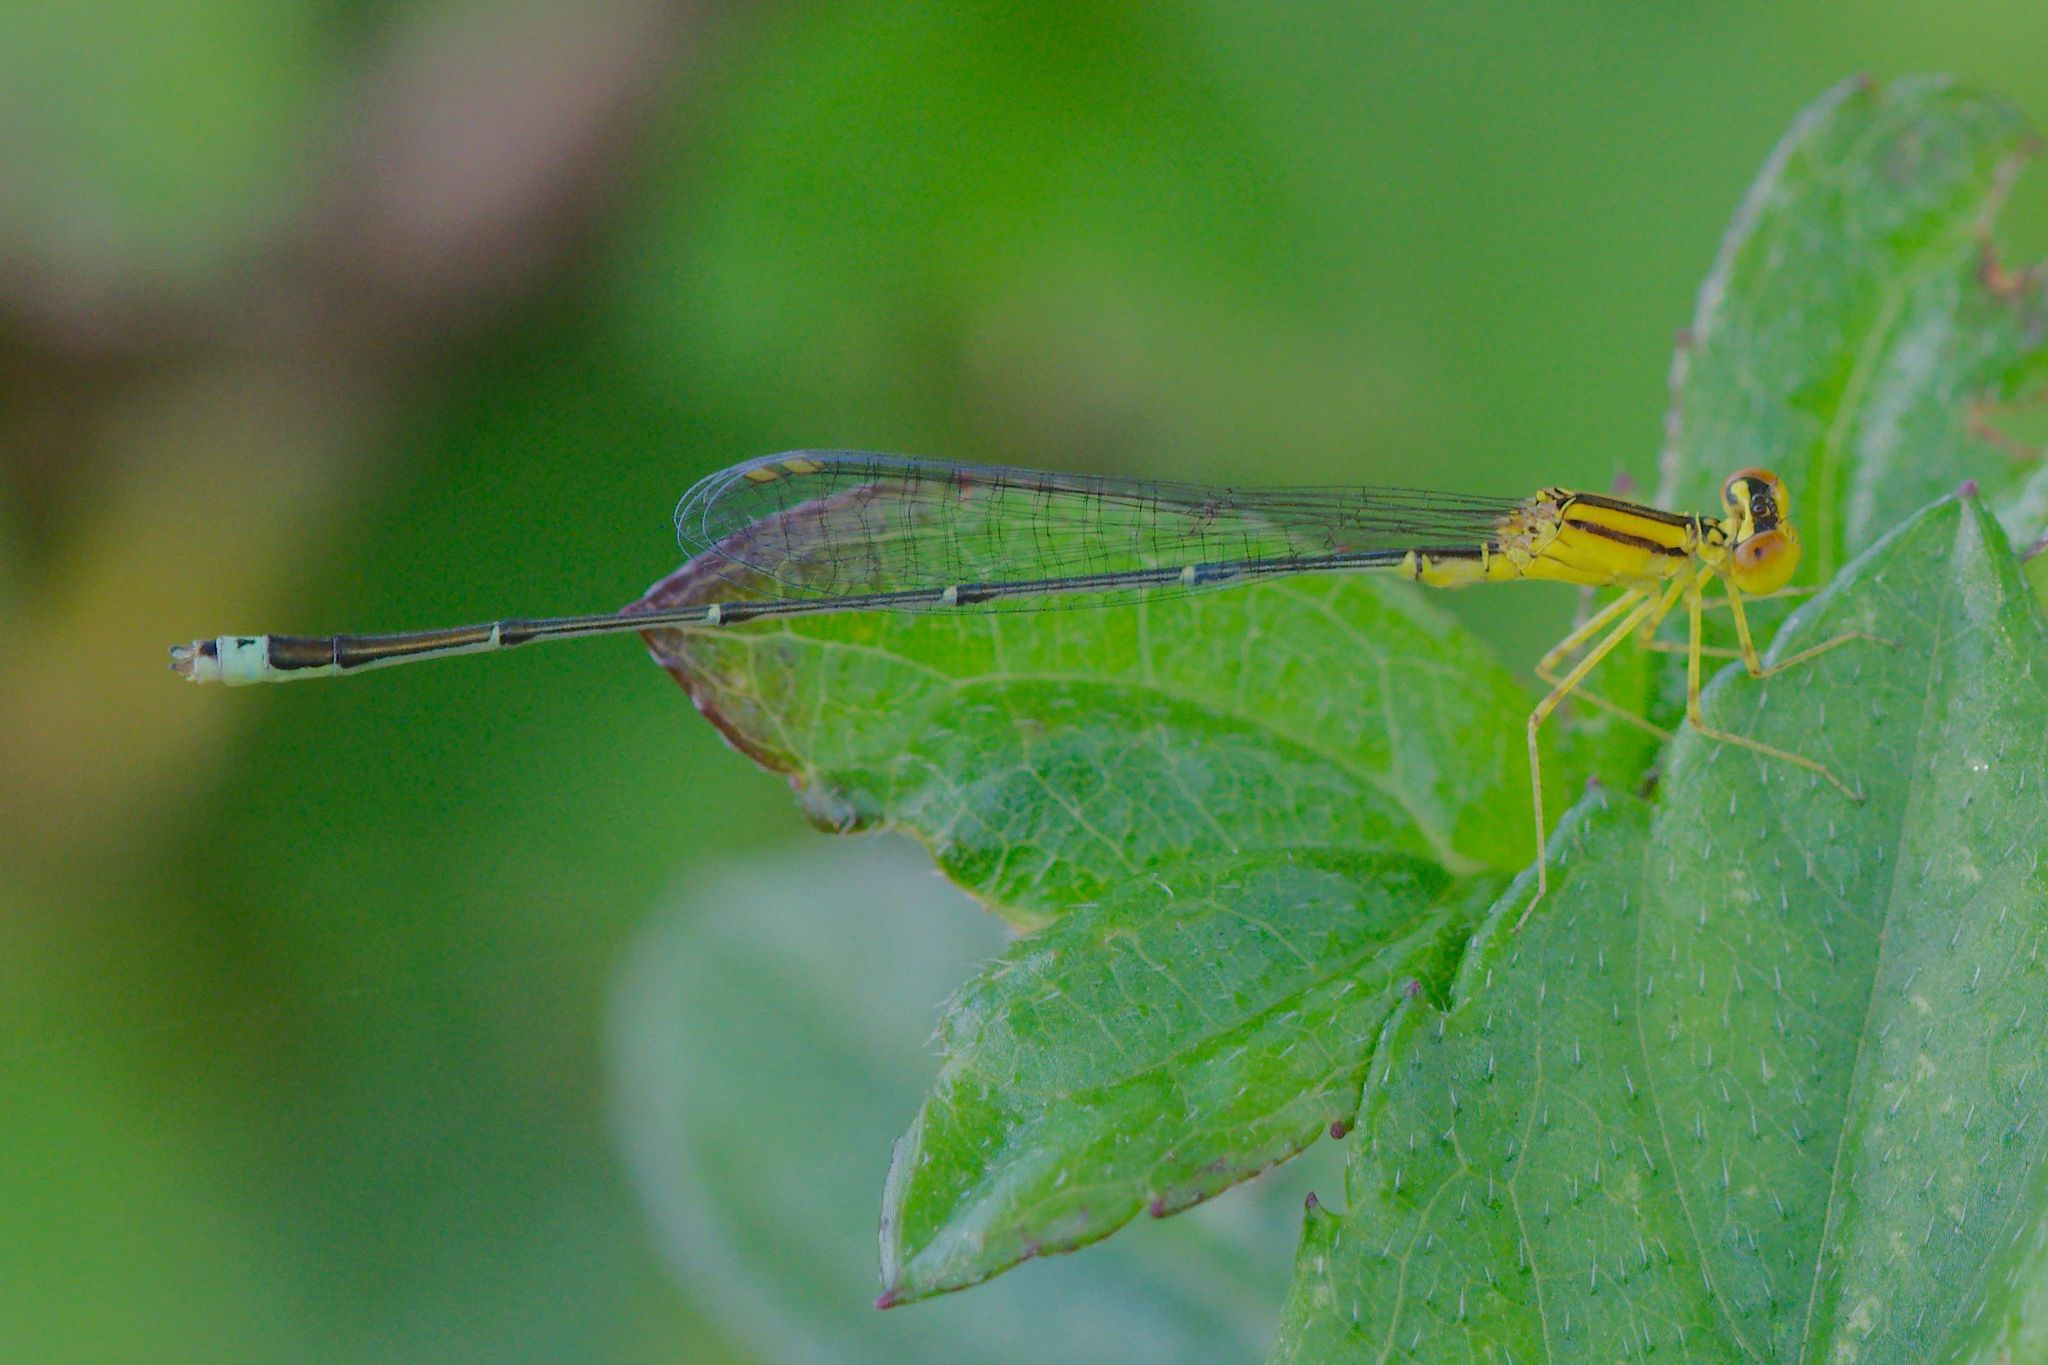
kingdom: Animalia
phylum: Arthropoda
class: Insecta
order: Odonata
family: Coenagrionidae
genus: Enallagma
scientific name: Enallagma vesperum
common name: Vesper bluet
